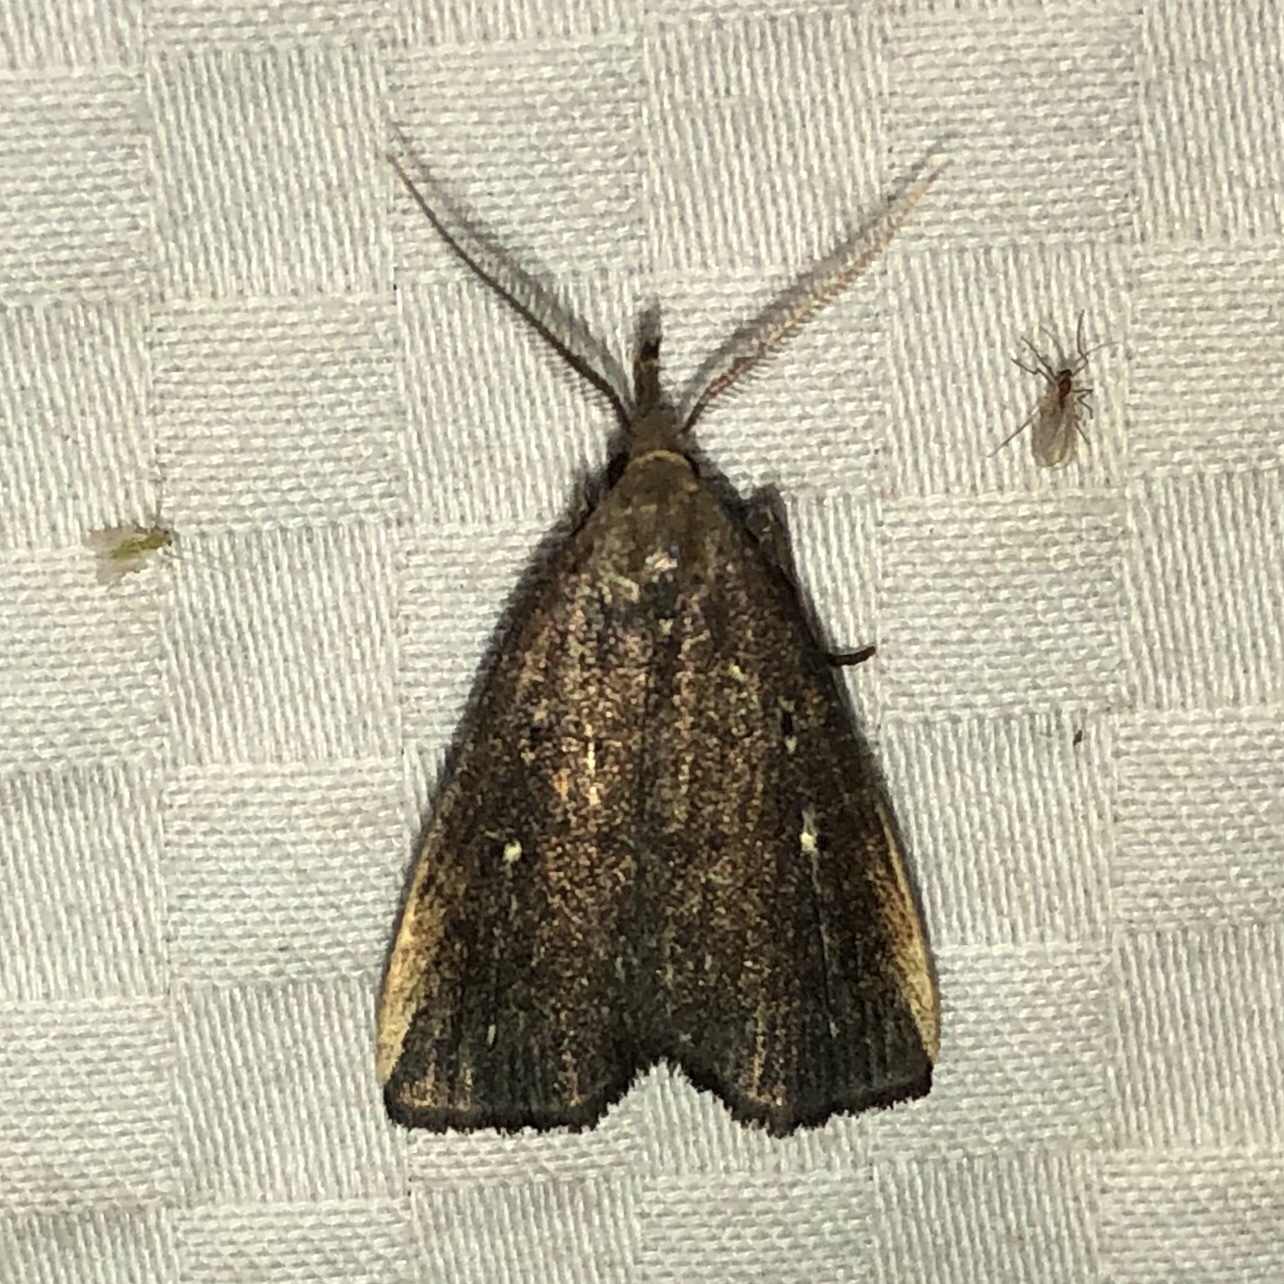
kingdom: Animalia
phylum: Arthropoda
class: Insecta
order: Lepidoptera
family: Erebidae
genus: Macrochilo
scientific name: Macrochilo orciferalis
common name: Bronzy owlet
